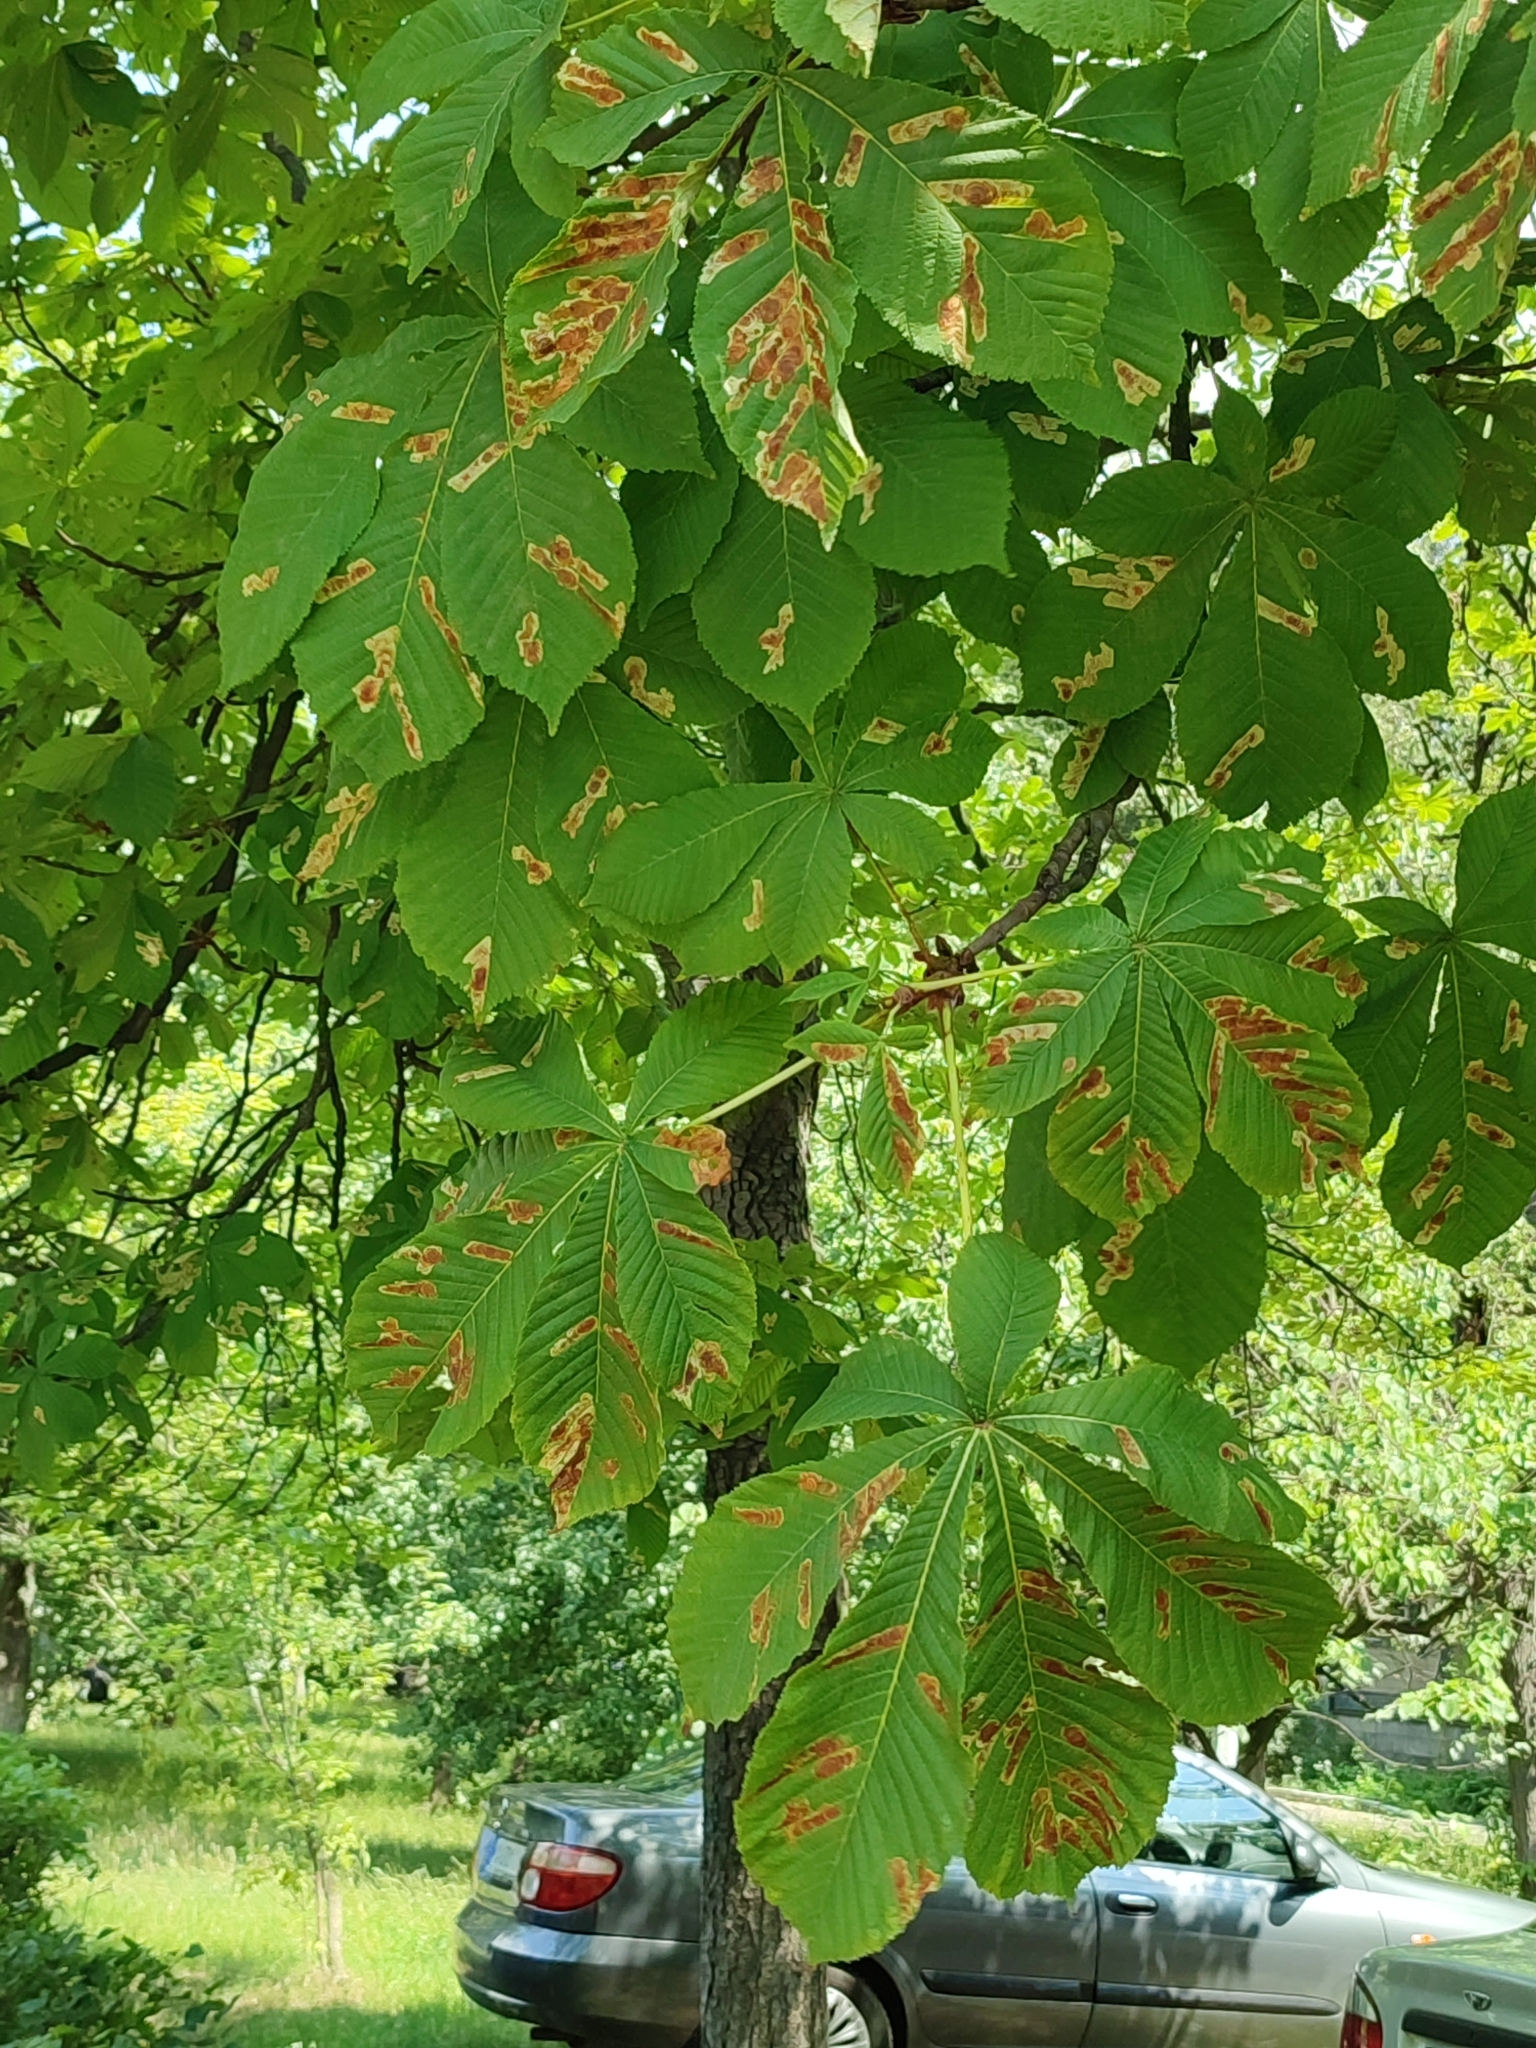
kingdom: Animalia
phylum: Arthropoda
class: Insecta
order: Lepidoptera
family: Gracillariidae
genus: Cameraria
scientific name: Cameraria ohridella
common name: Horse-chestnut leaf-miner
